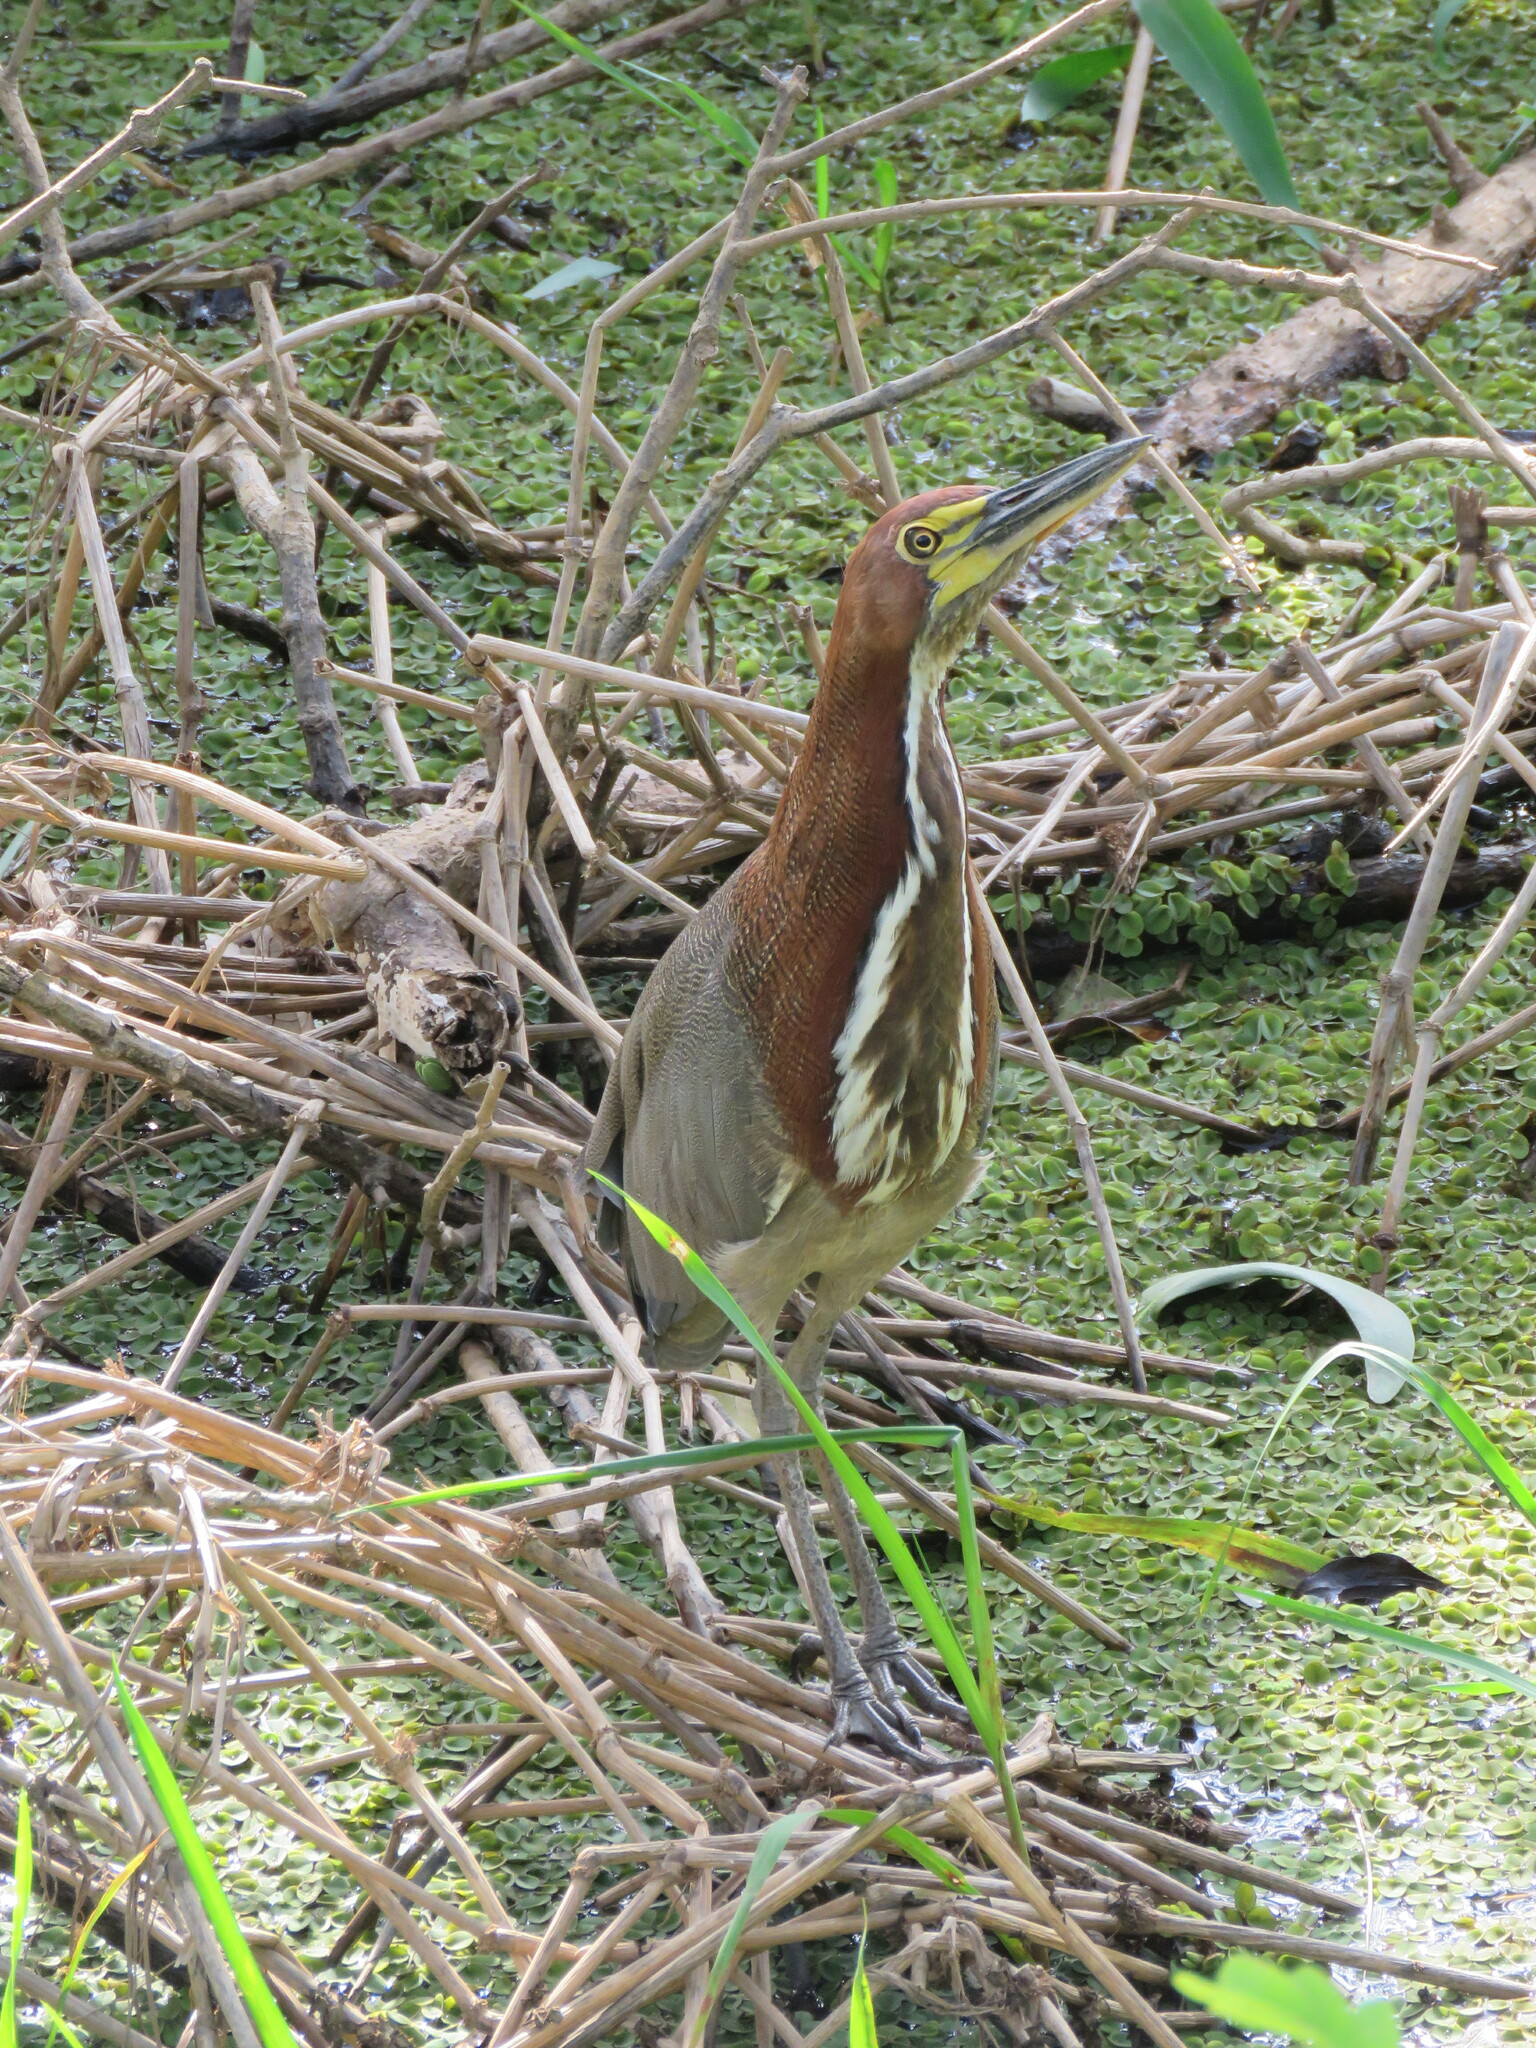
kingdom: Animalia
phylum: Chordata
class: Aves
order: Pelecaniformes
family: Ardeidae
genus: Tigrisoma
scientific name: Tigrisoma lineatum
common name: Rufescent tiger-heron
